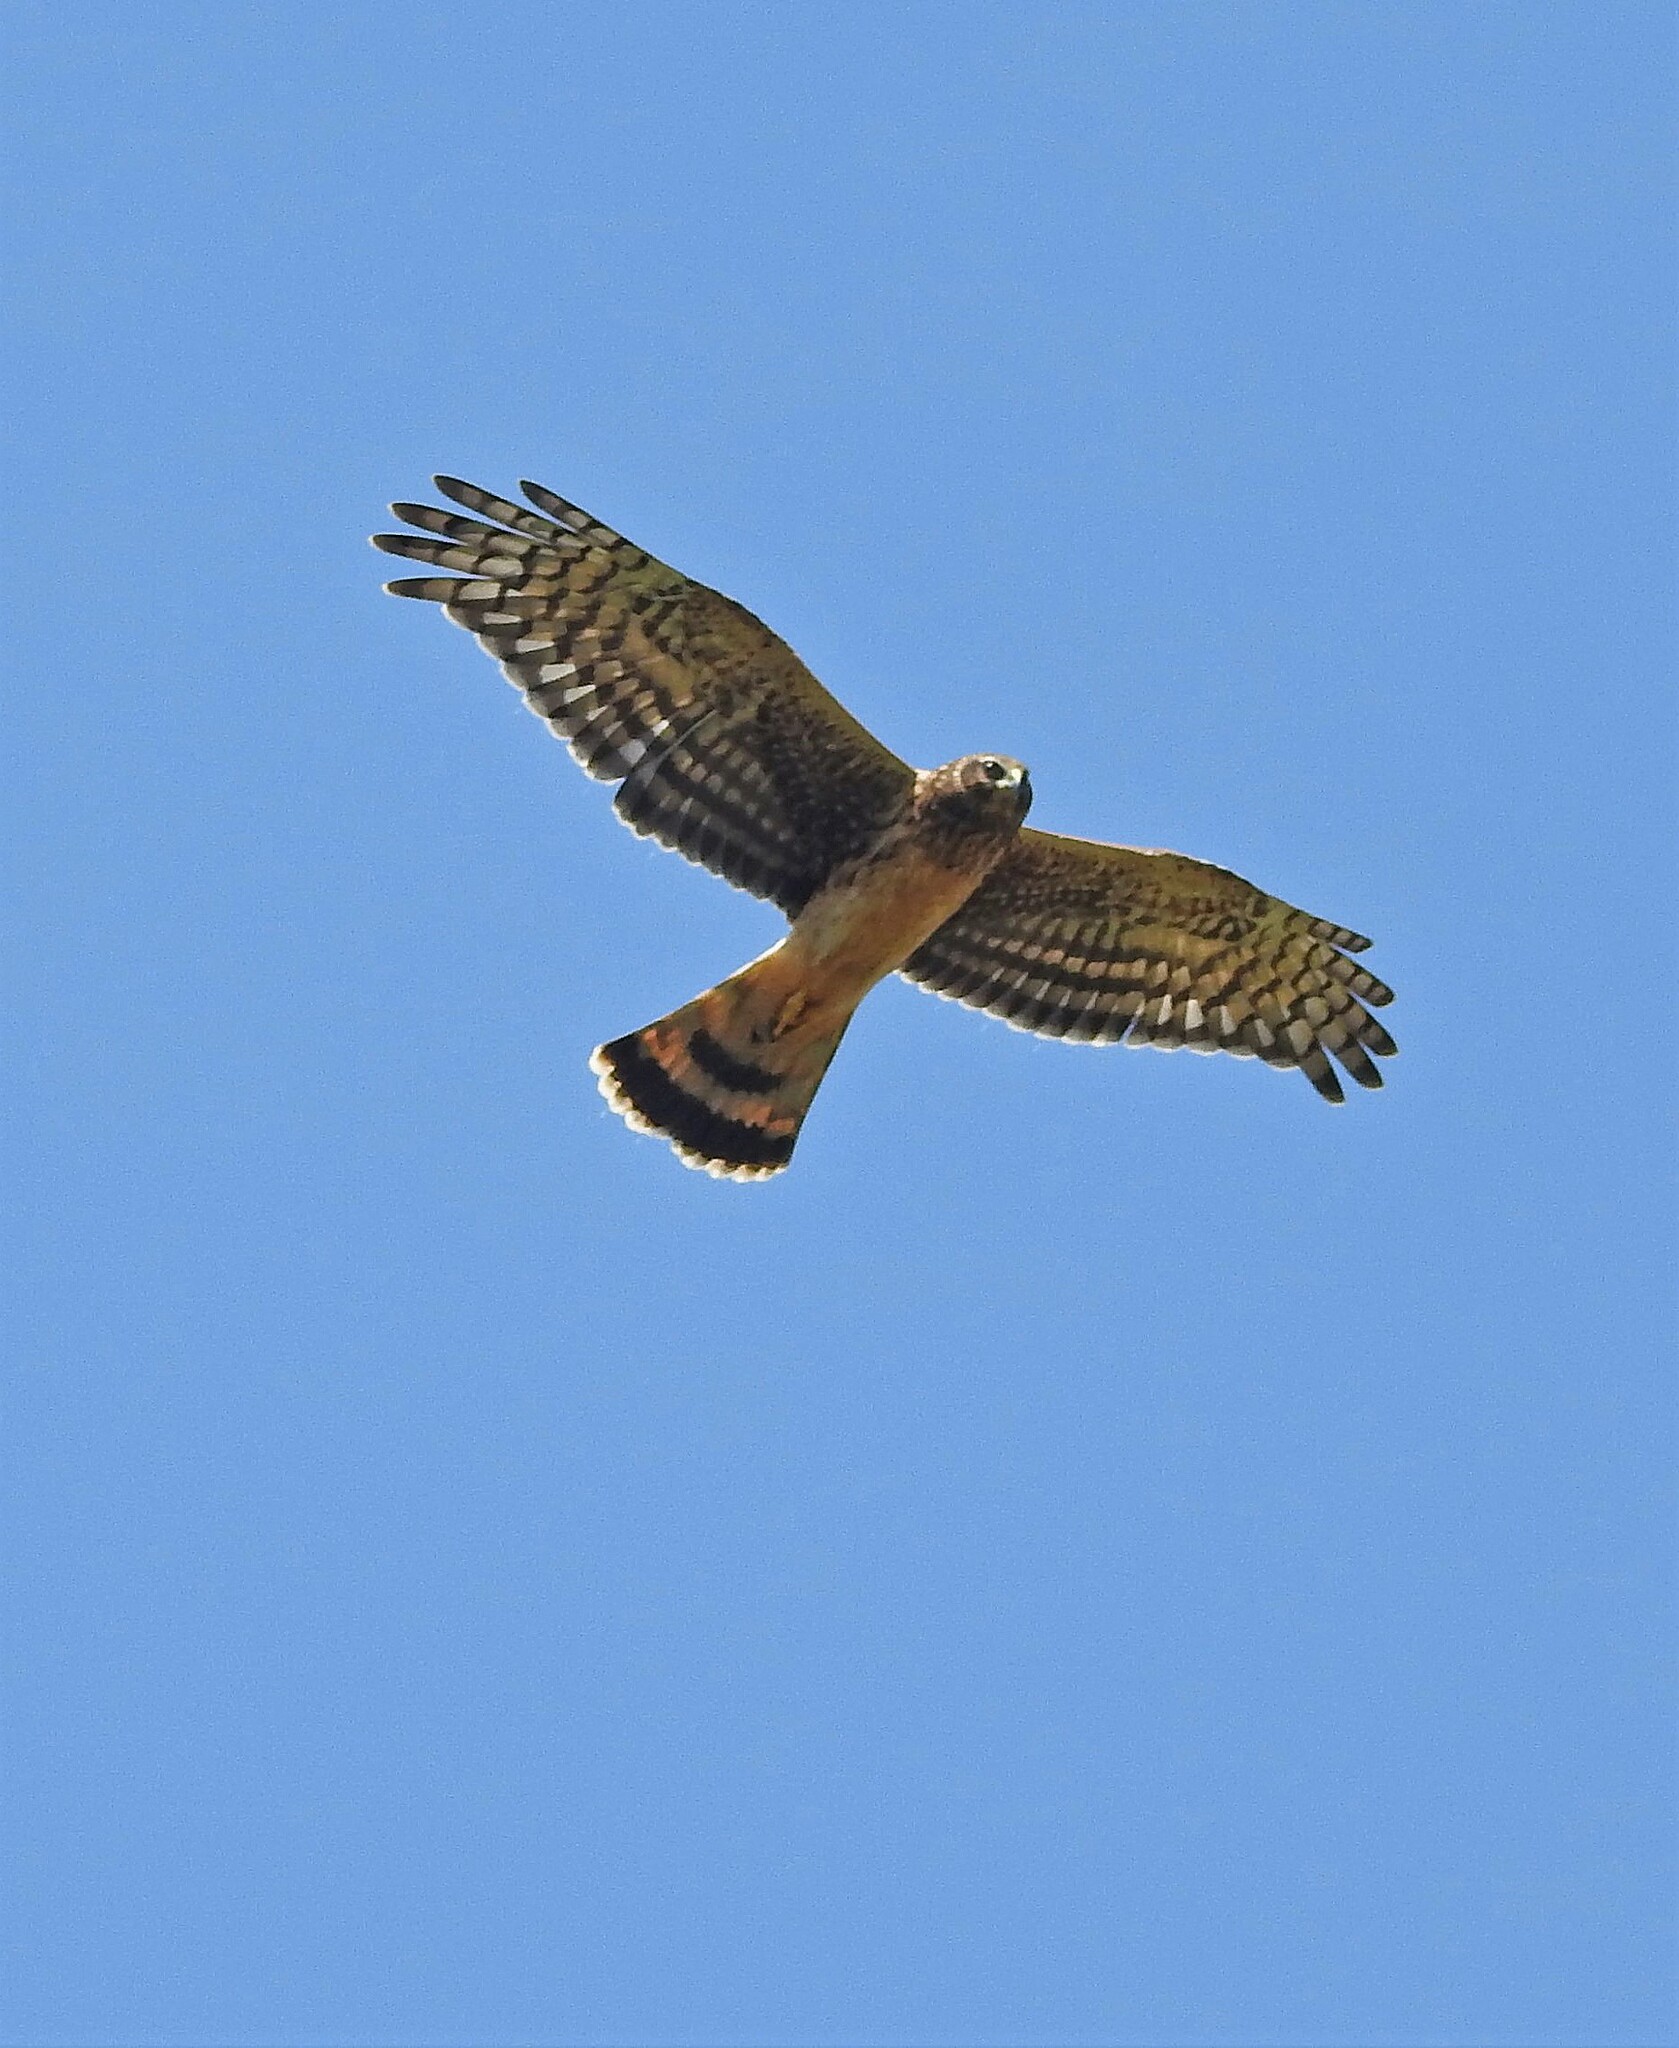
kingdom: Animalia
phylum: Chordata
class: Aves
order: Accipitriformes
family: Accipitridae
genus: Circus
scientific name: Circus cinereus
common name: Cinereous harrier
